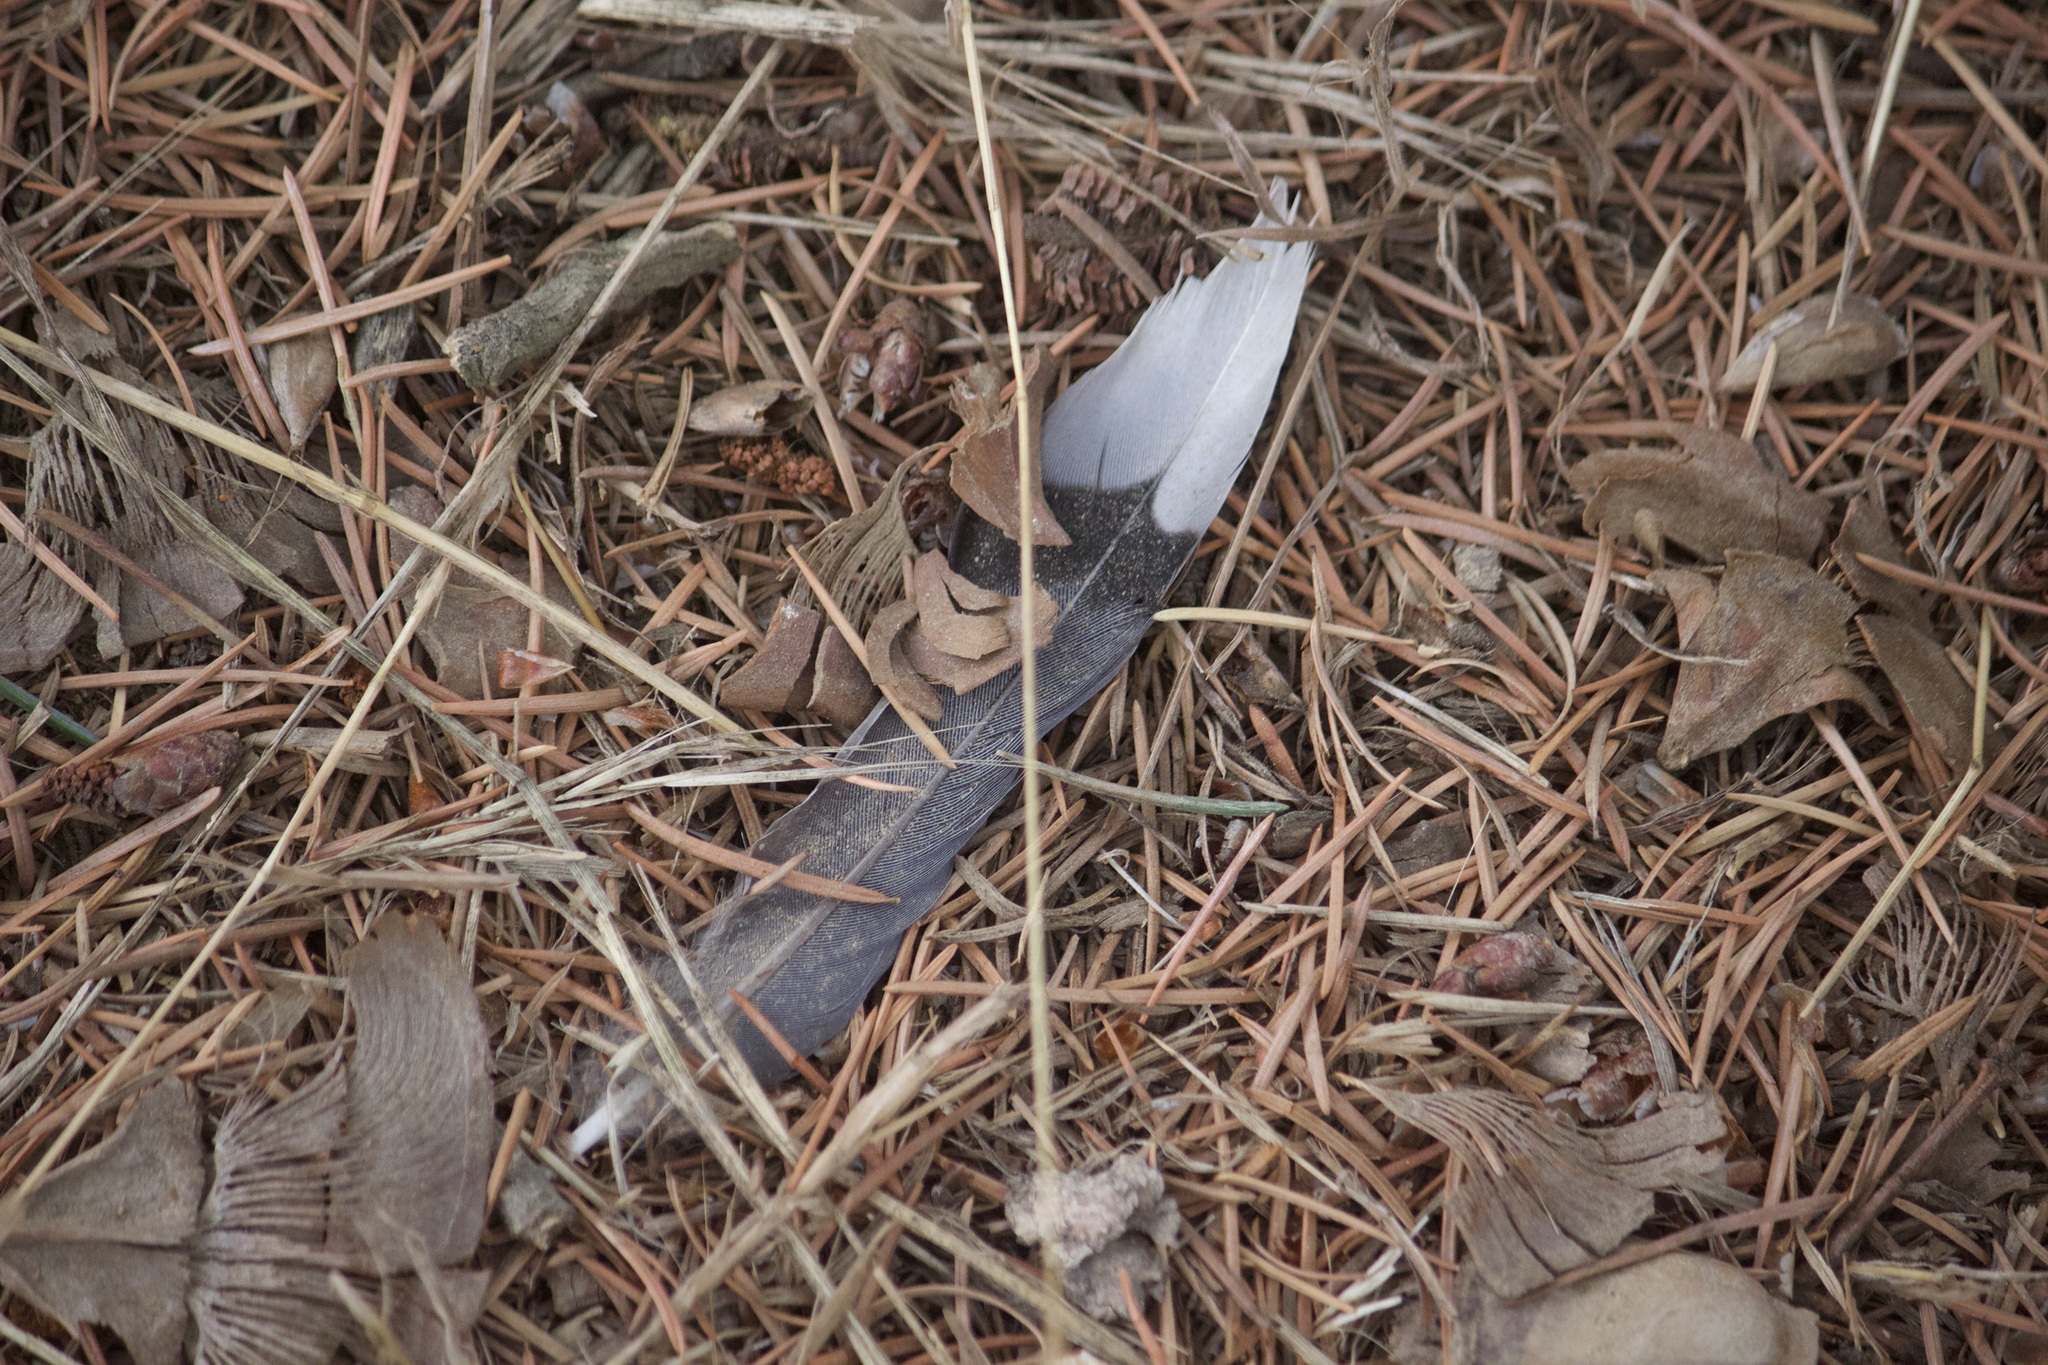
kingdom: Animalia
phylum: Chordata
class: Aves
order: Columbiformes
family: Columbidae
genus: Zenaida
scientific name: Zenaida macroura
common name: Mourning dove
